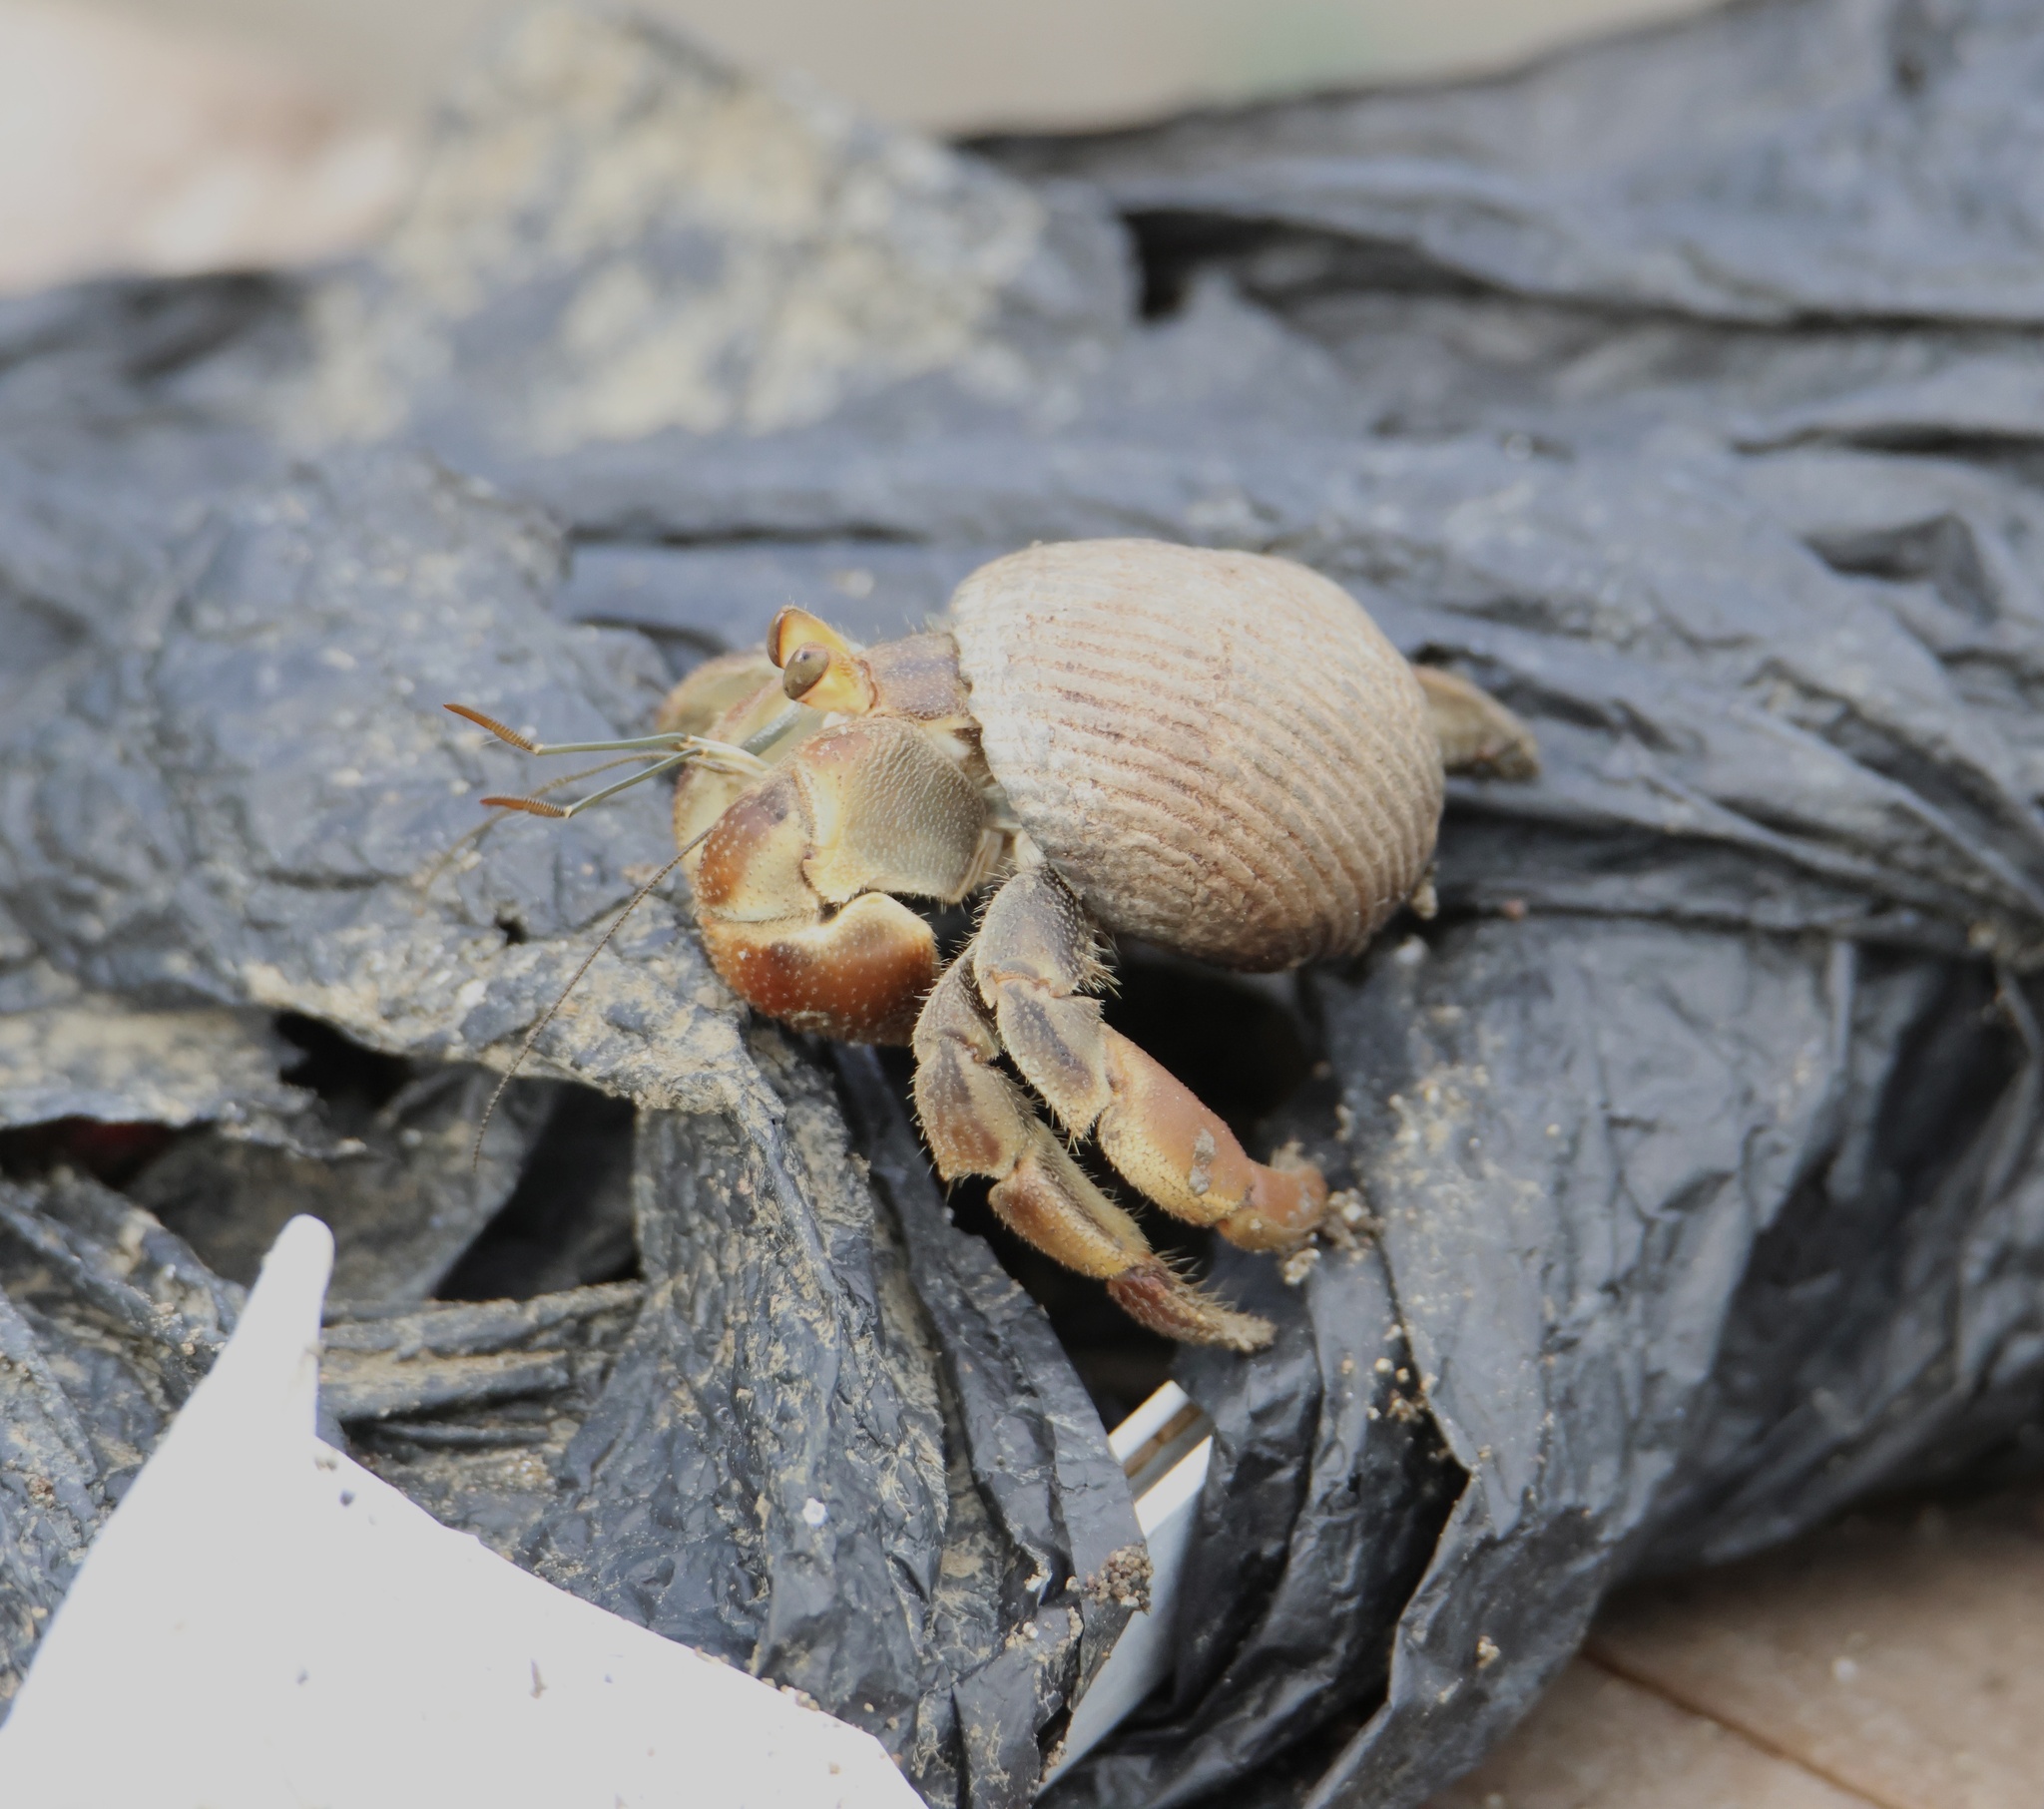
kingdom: Animalia
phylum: Arthropoda
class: Malacostraca
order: Decapoda
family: Coenobitidae
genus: Coenobita
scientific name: Coenobita compressus
